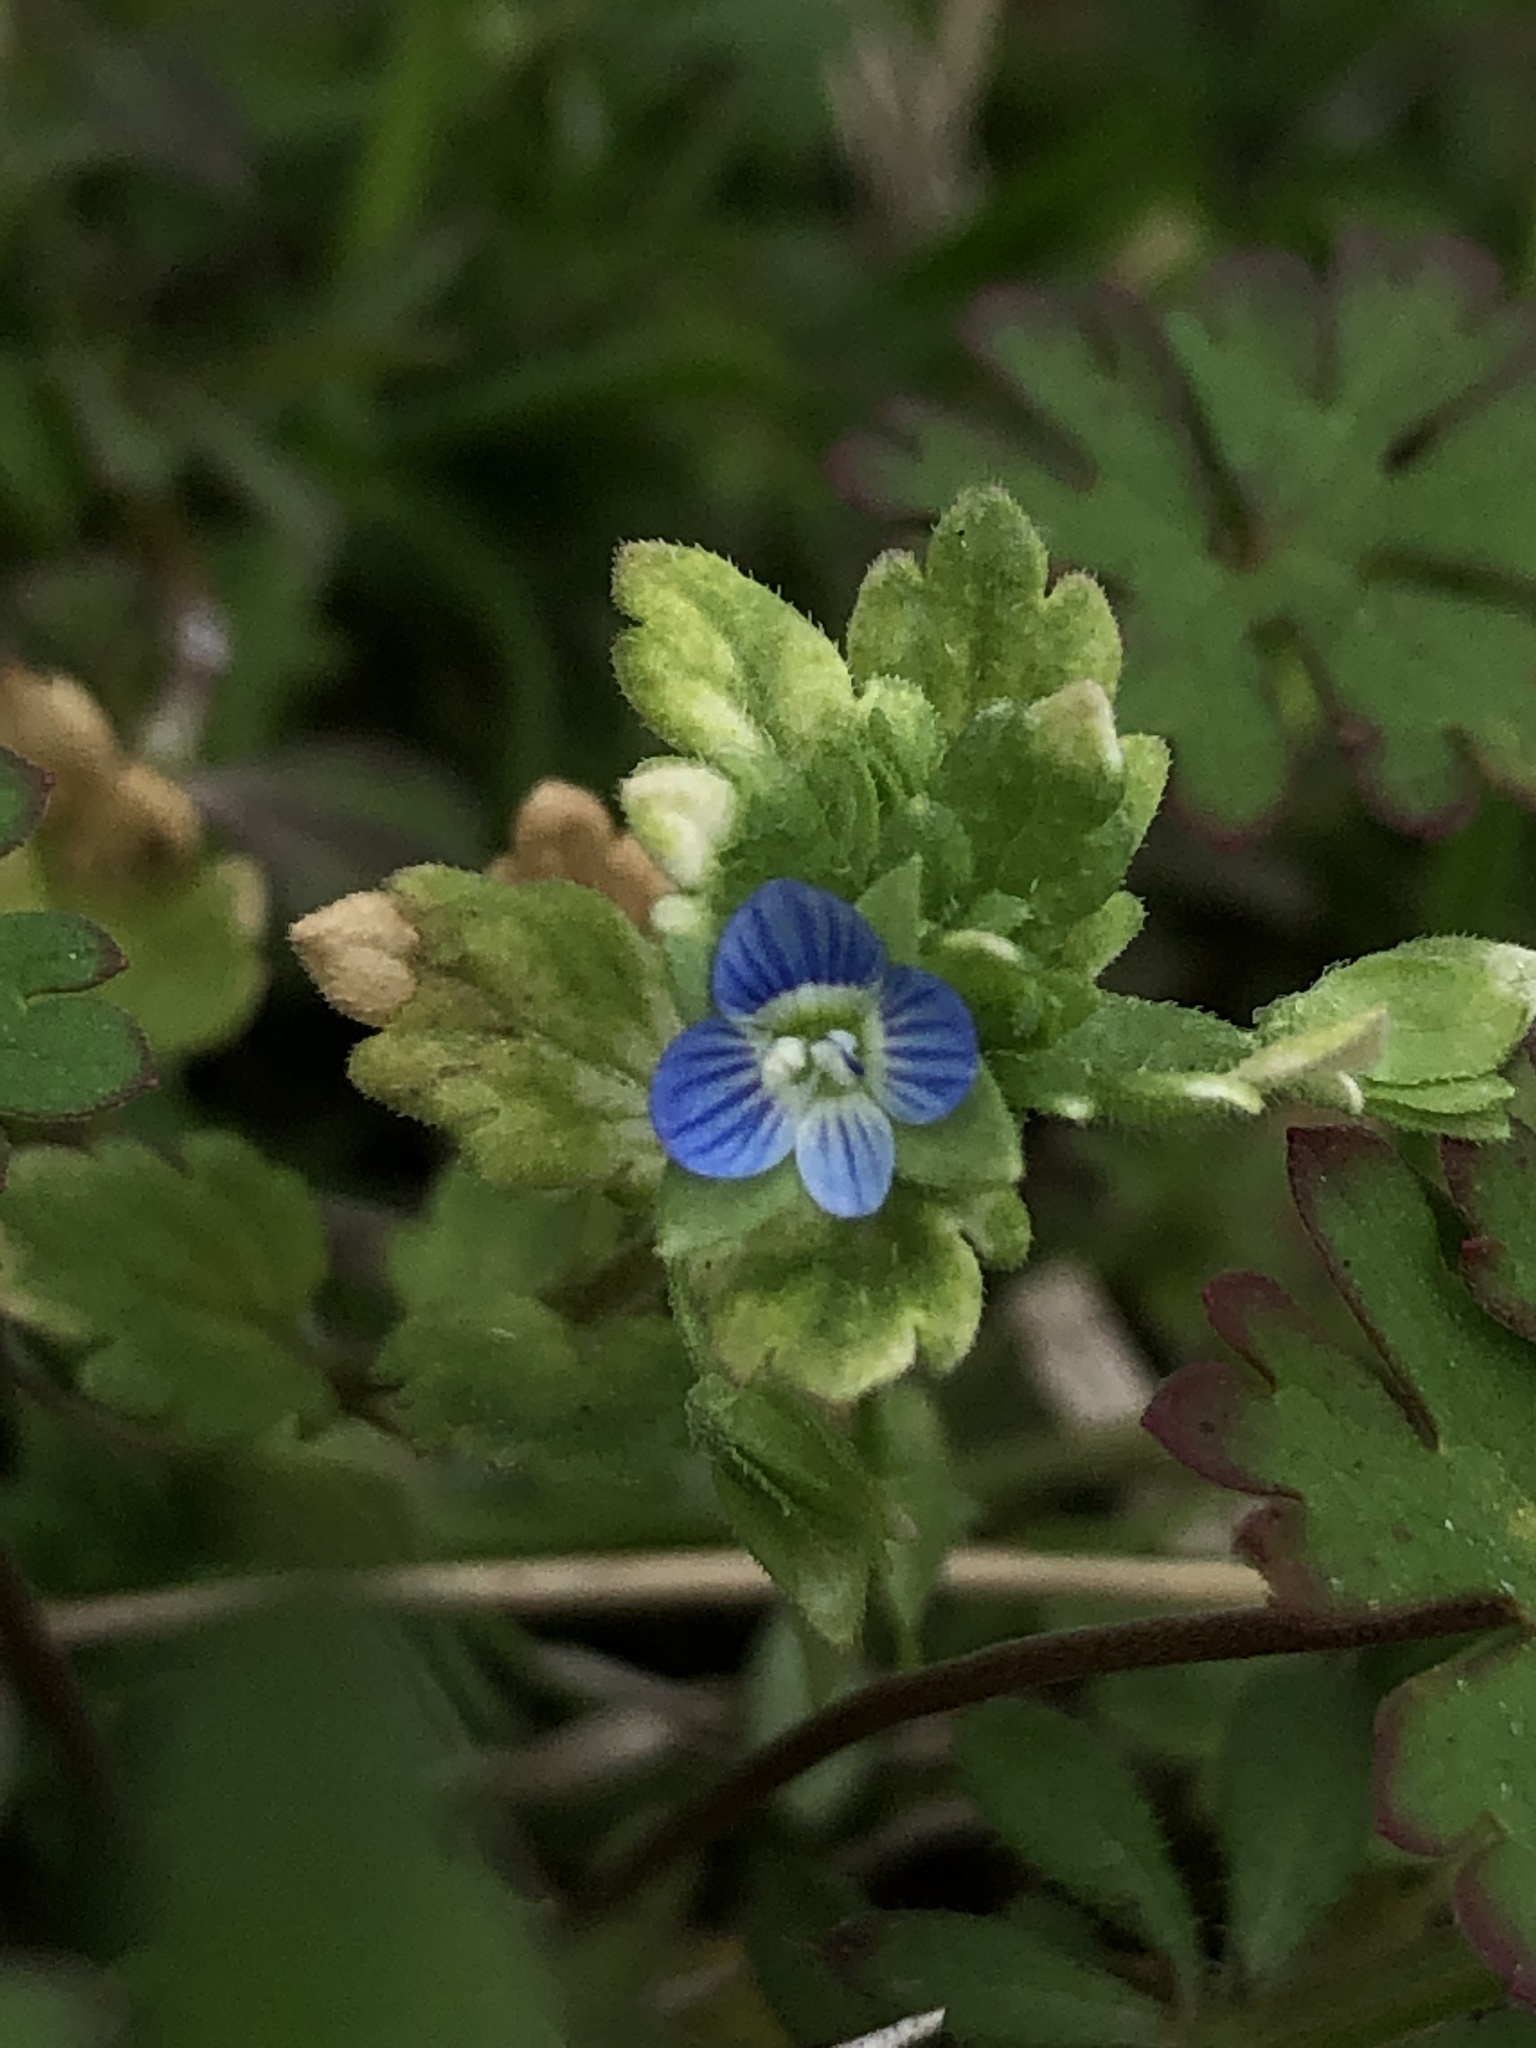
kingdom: Plantae
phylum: Tracheophyta
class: Magnoliopsida
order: Lamiales
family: Plantaginaceae
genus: Veronica
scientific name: Veronica polita
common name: Grey field-speedwell
